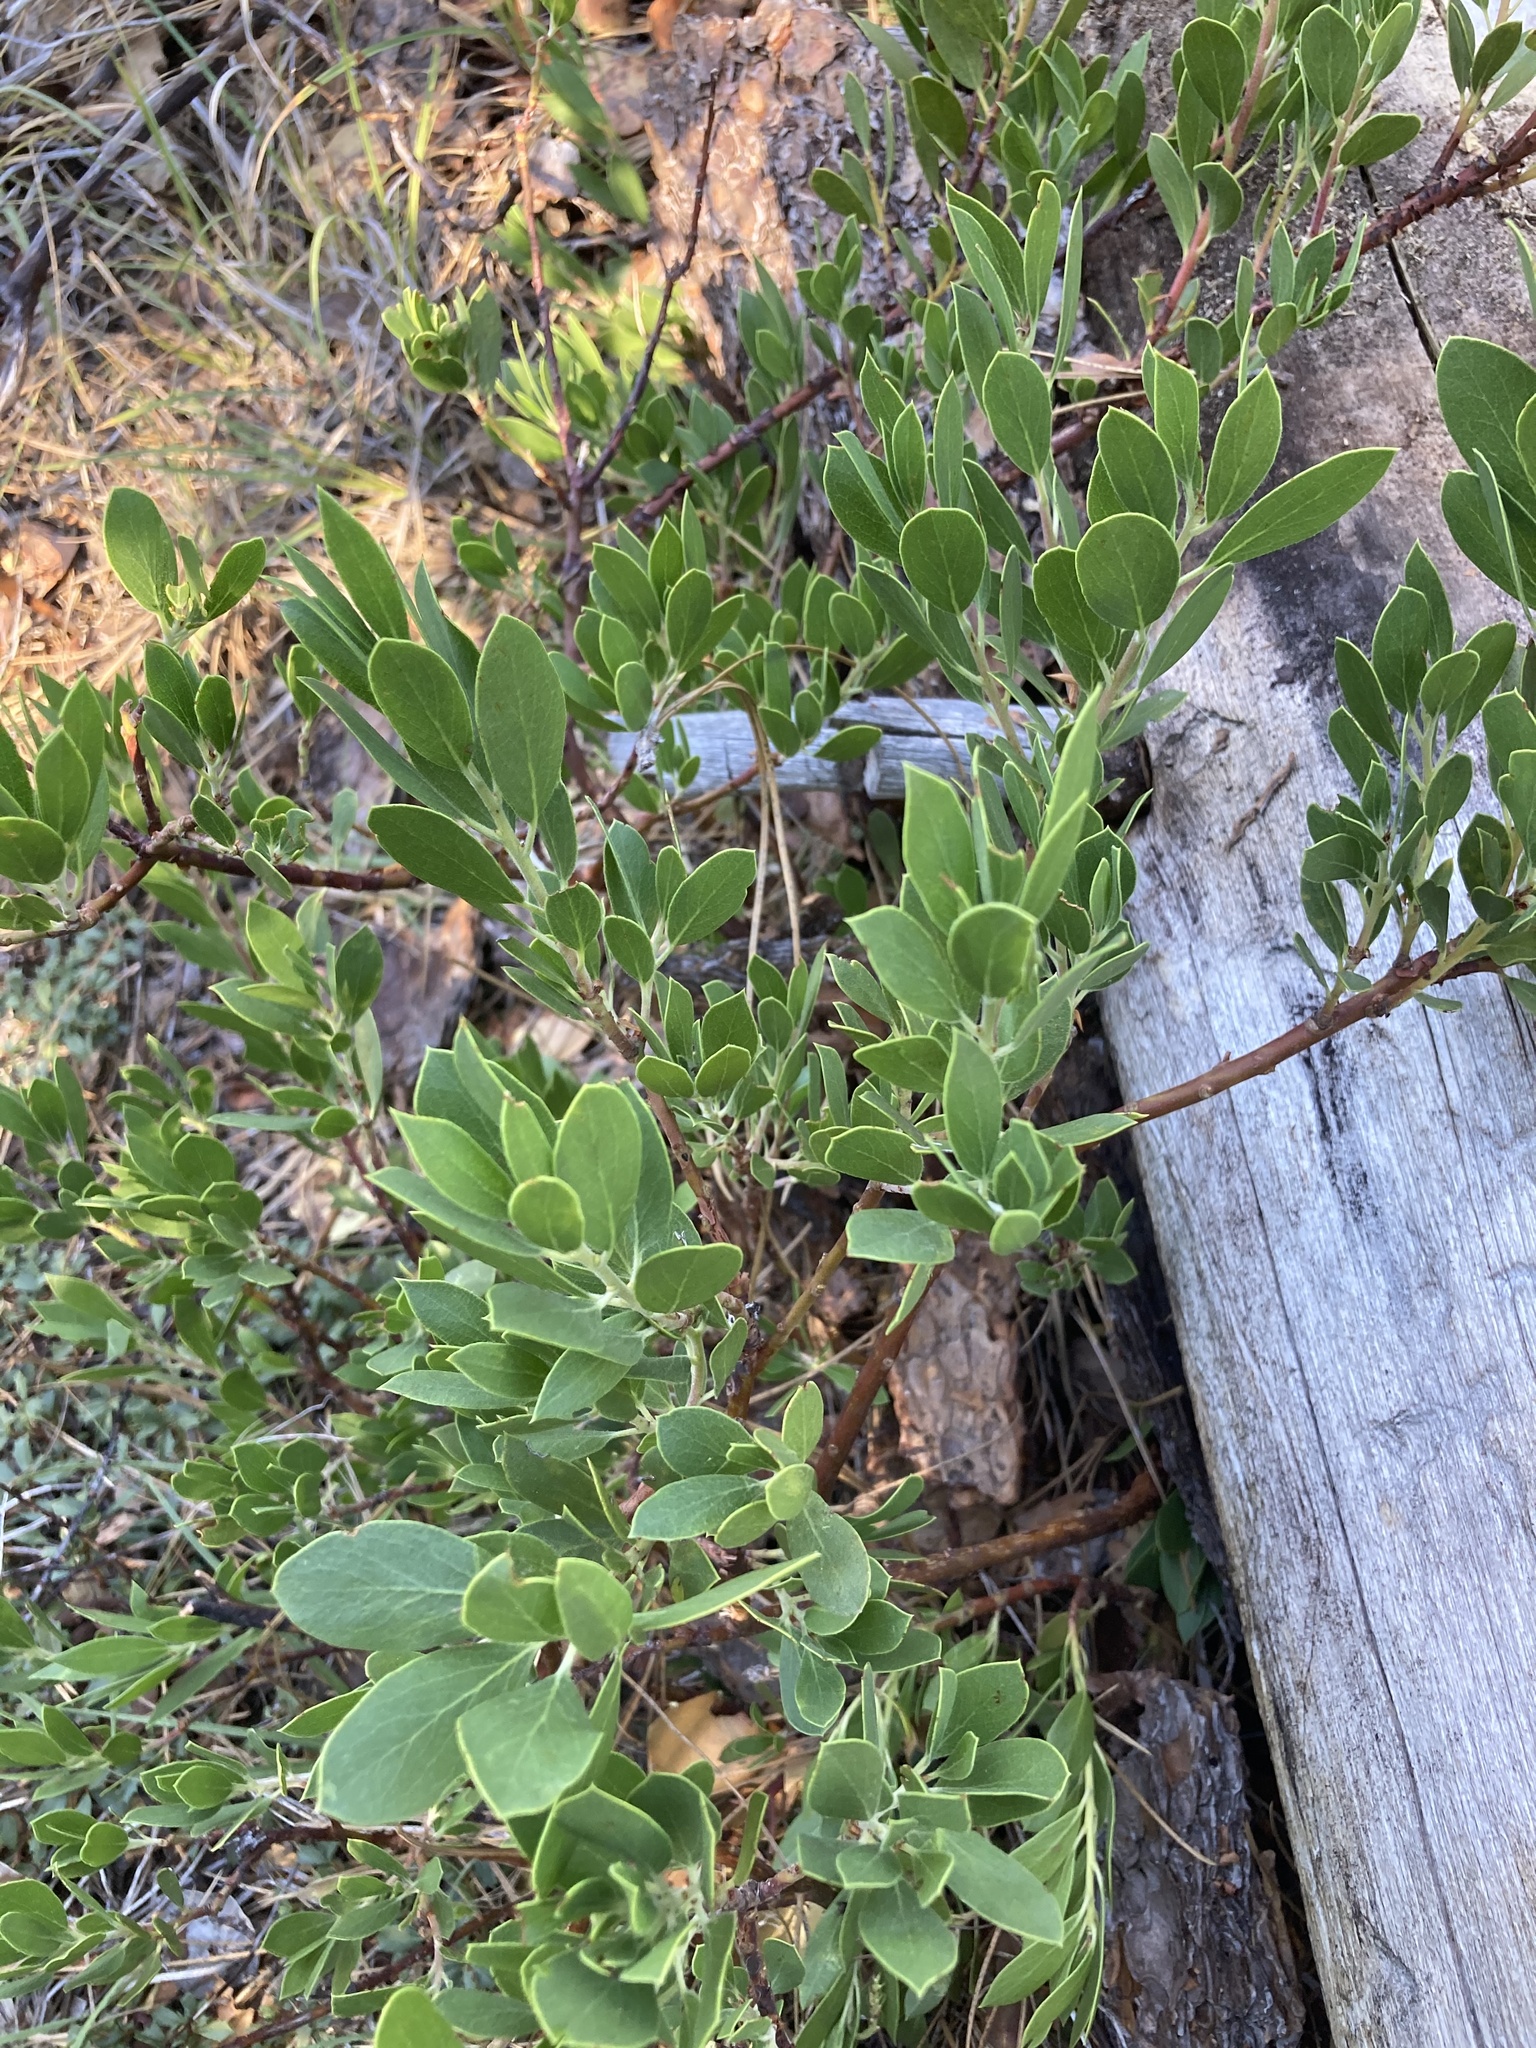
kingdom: Plantae
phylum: Tracheophyta
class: Magnoliopsida
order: Ericales
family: Ericaceae
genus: Arctostaphylos
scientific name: Arctostaphylos nevadensis
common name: Pinemat manzanita
